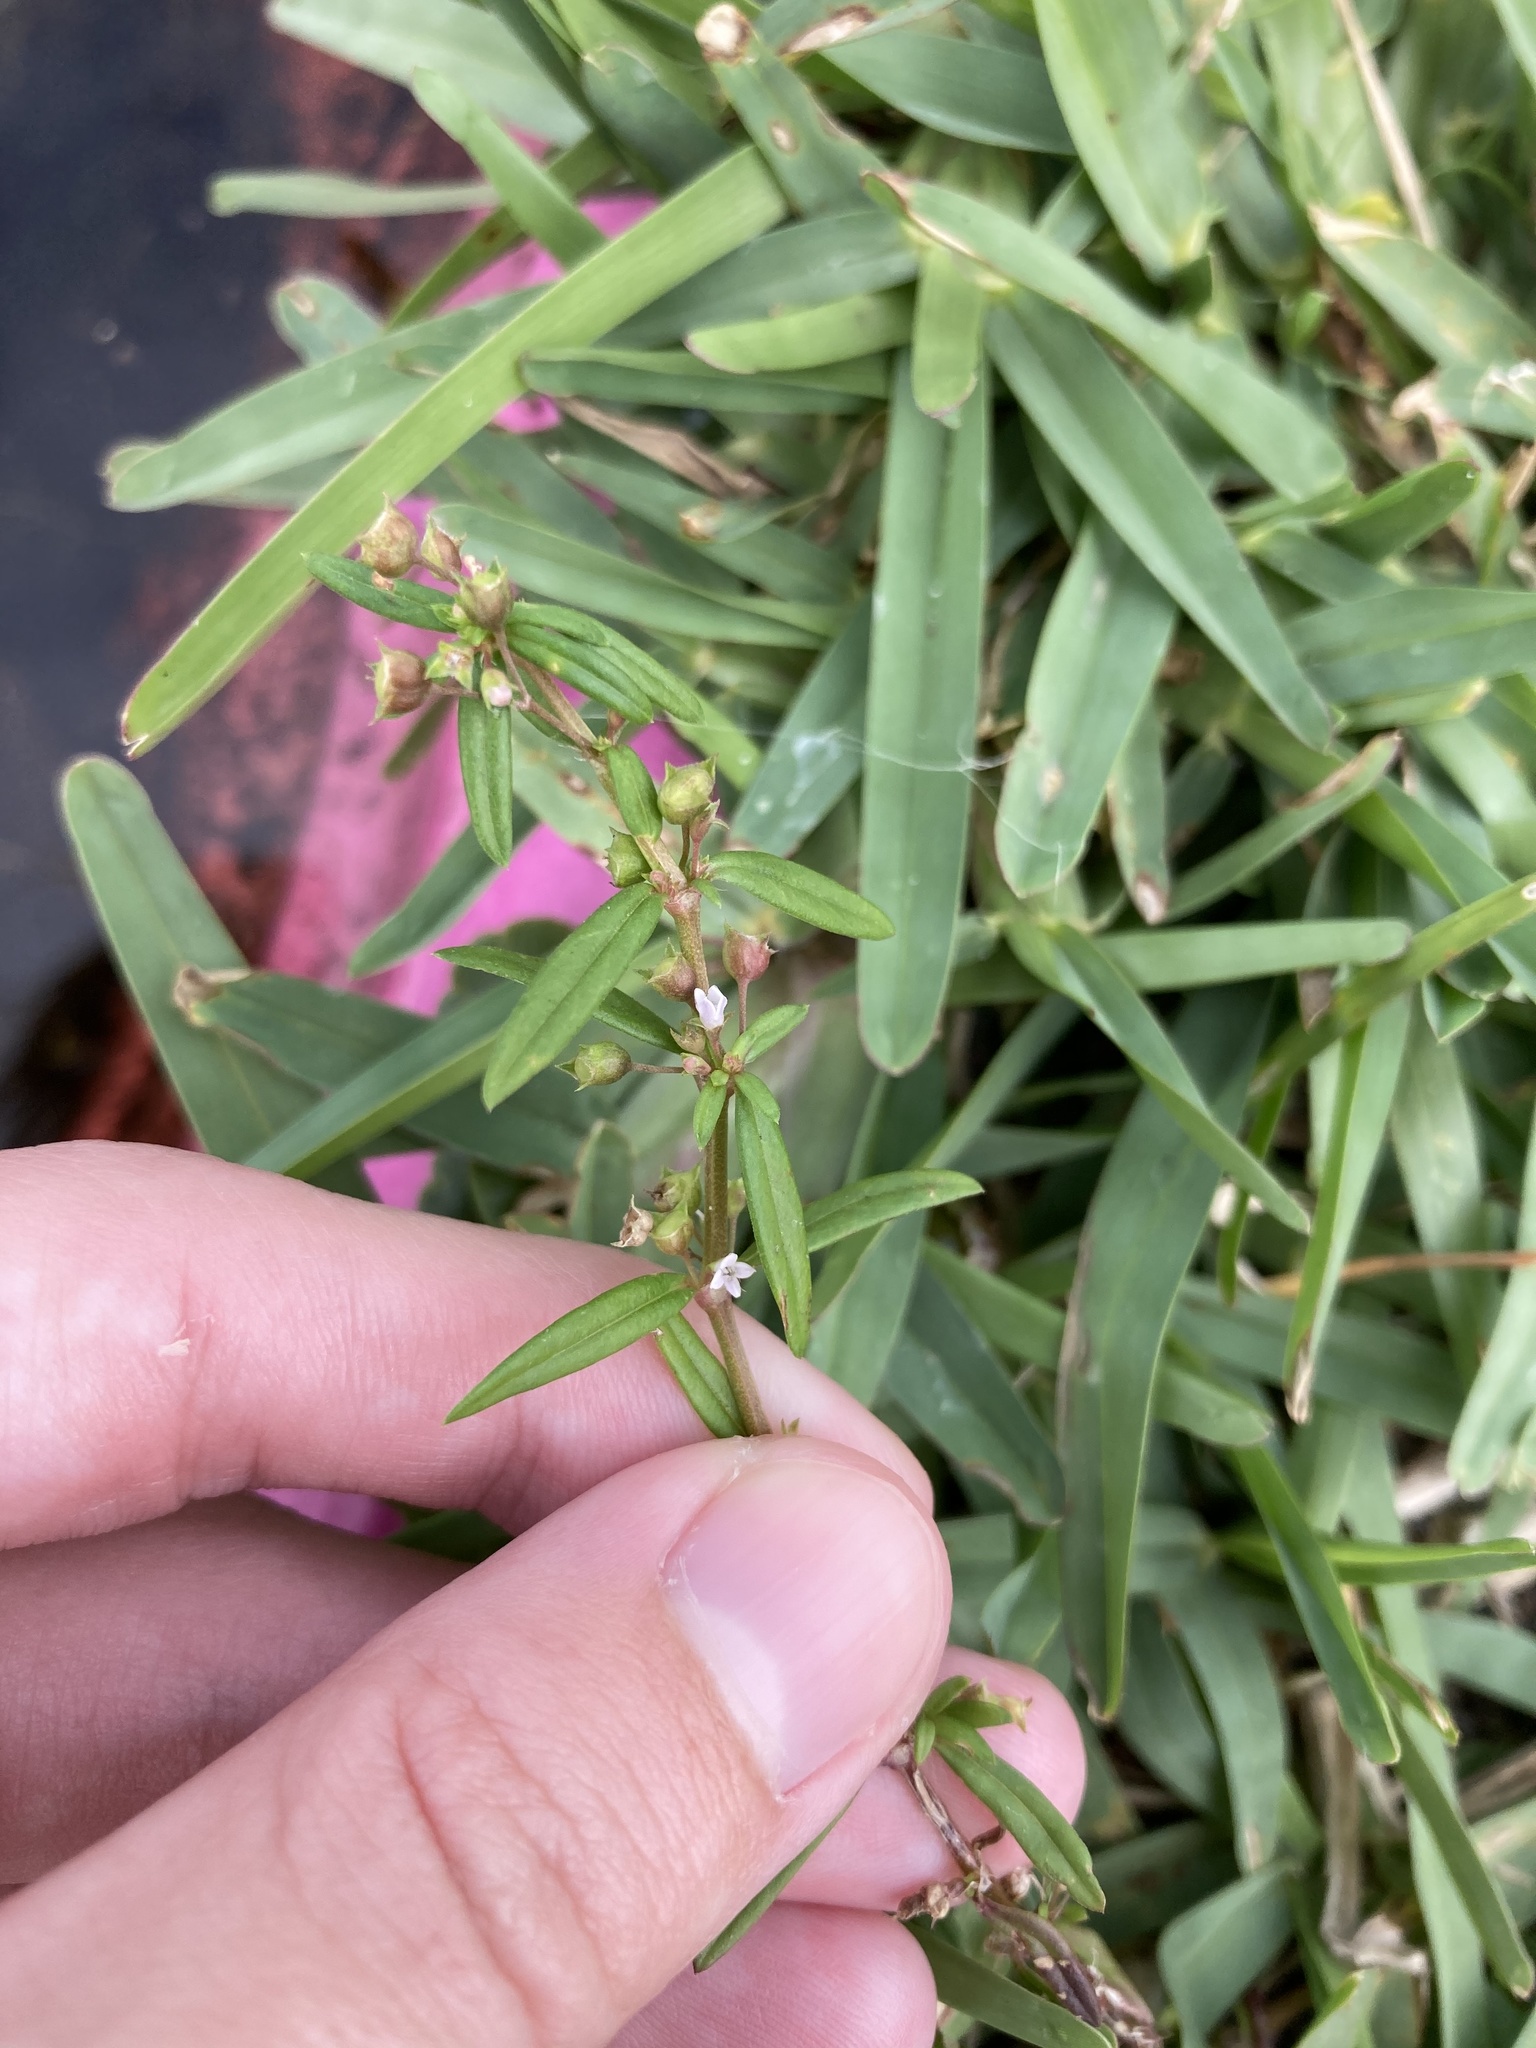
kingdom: Plantae
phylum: Tracheophyta
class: Magnoliopsida
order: Gentianales
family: Rubiaceae
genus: Oldenlandia
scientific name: Oldenlandia corymbosa
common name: Flat-top mille graines
